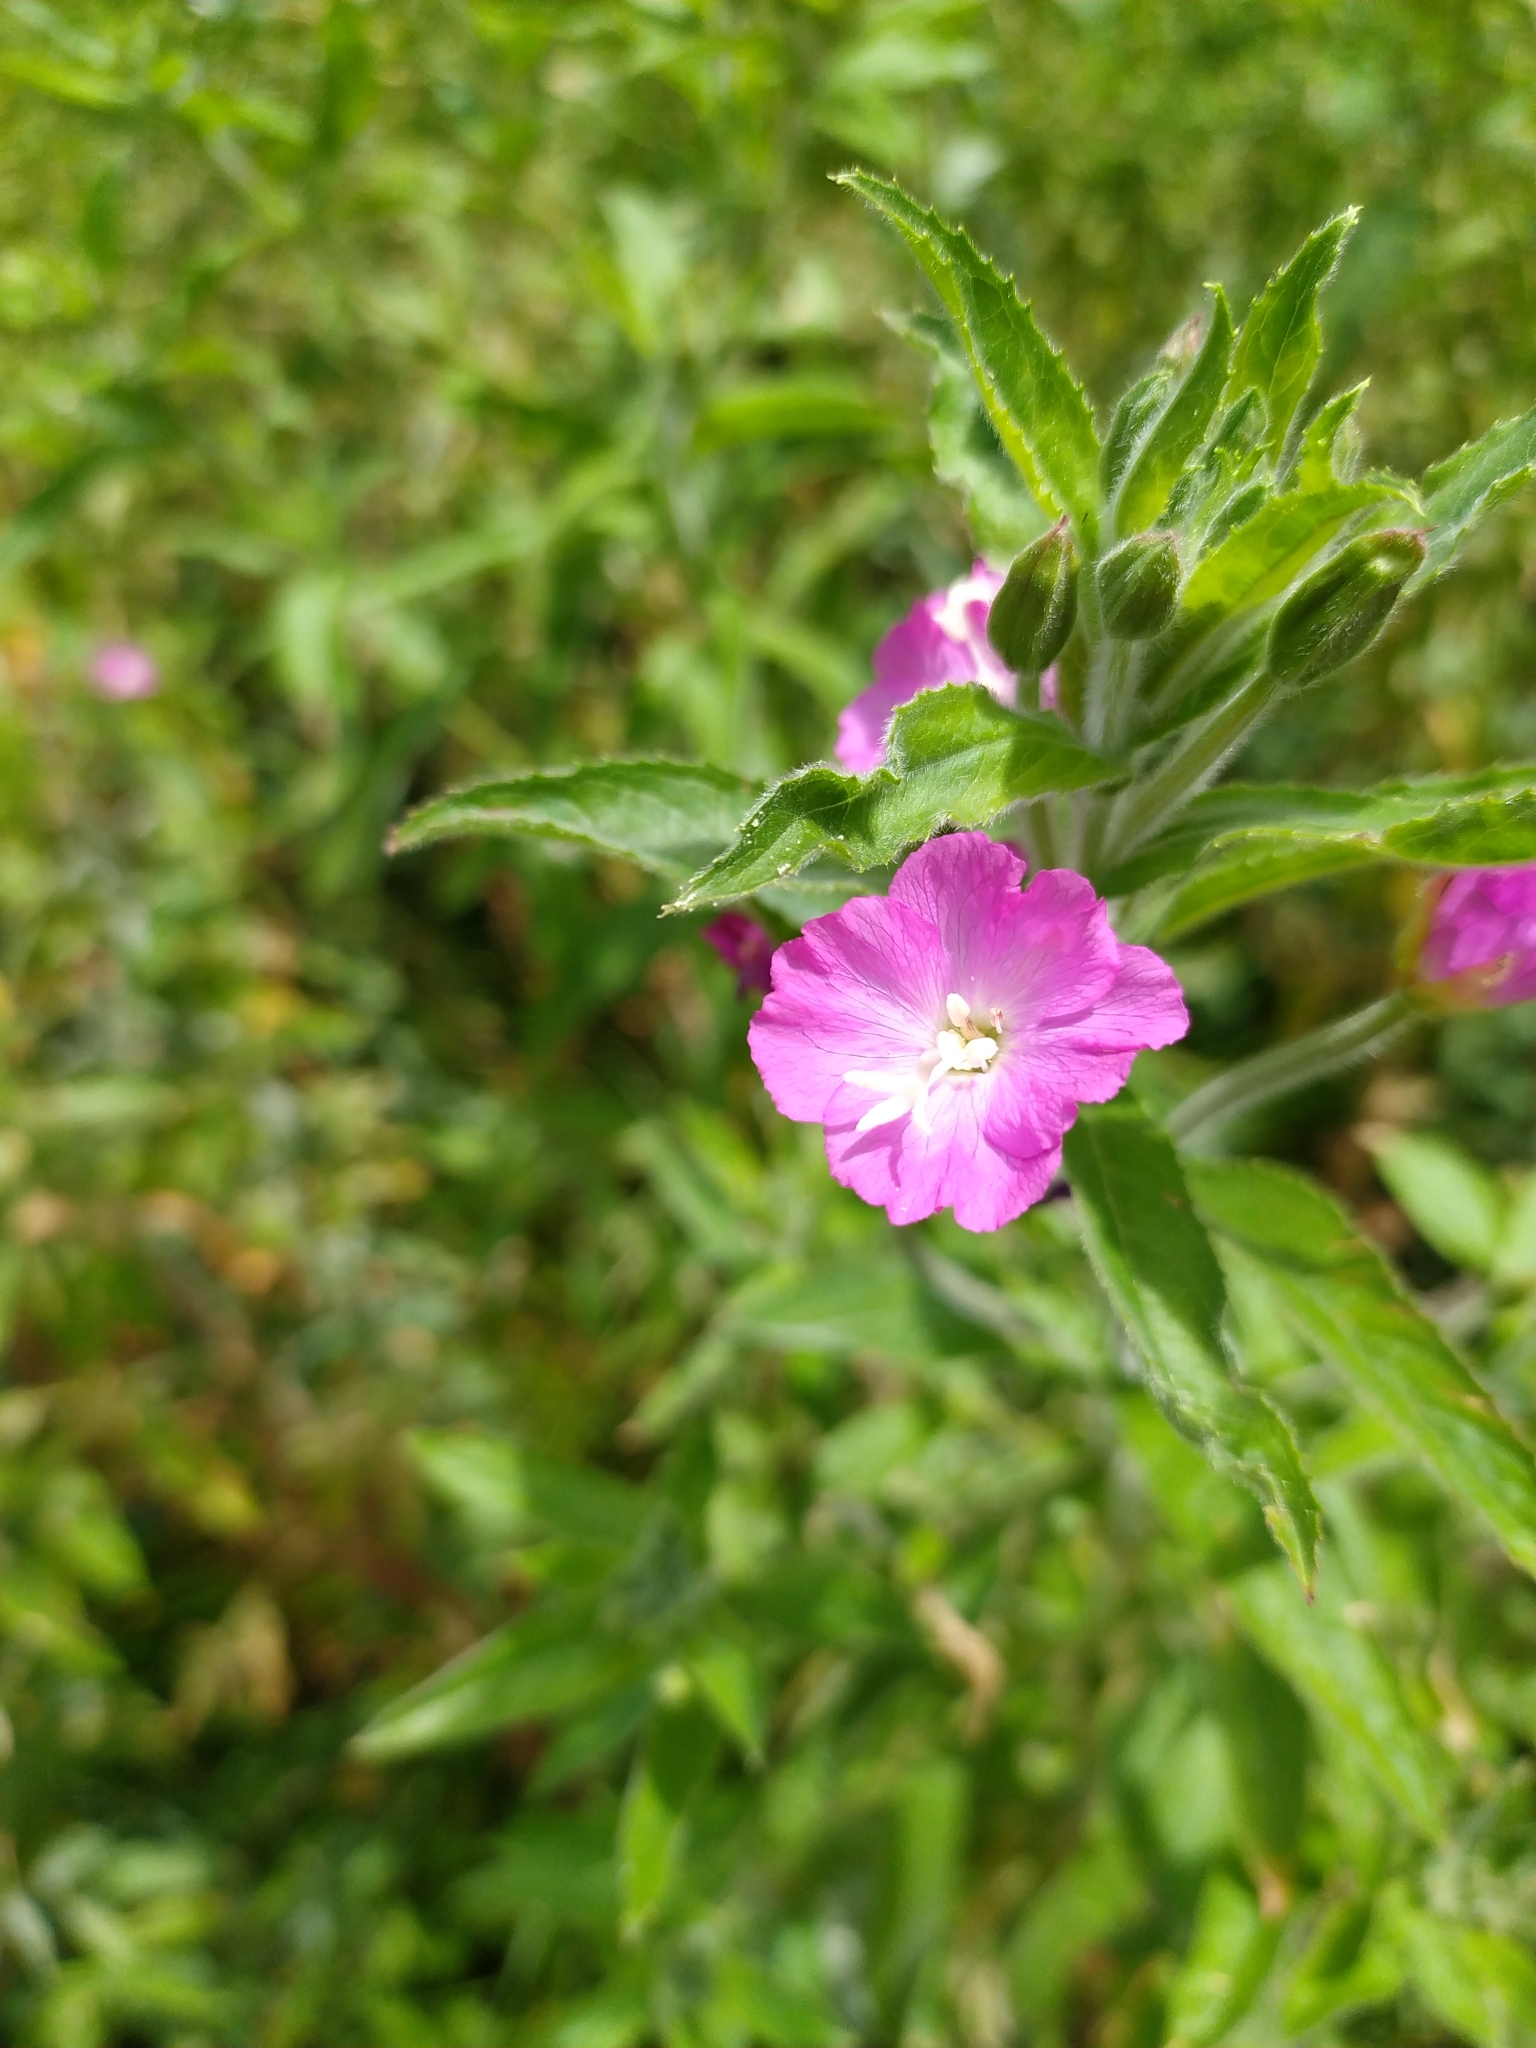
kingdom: Plantae
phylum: Tracheophyta
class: Magnoliopsida
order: Myrtales
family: Onagraceae
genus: Epilobium
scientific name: Epilobium hirsutum
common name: Great willowherb
